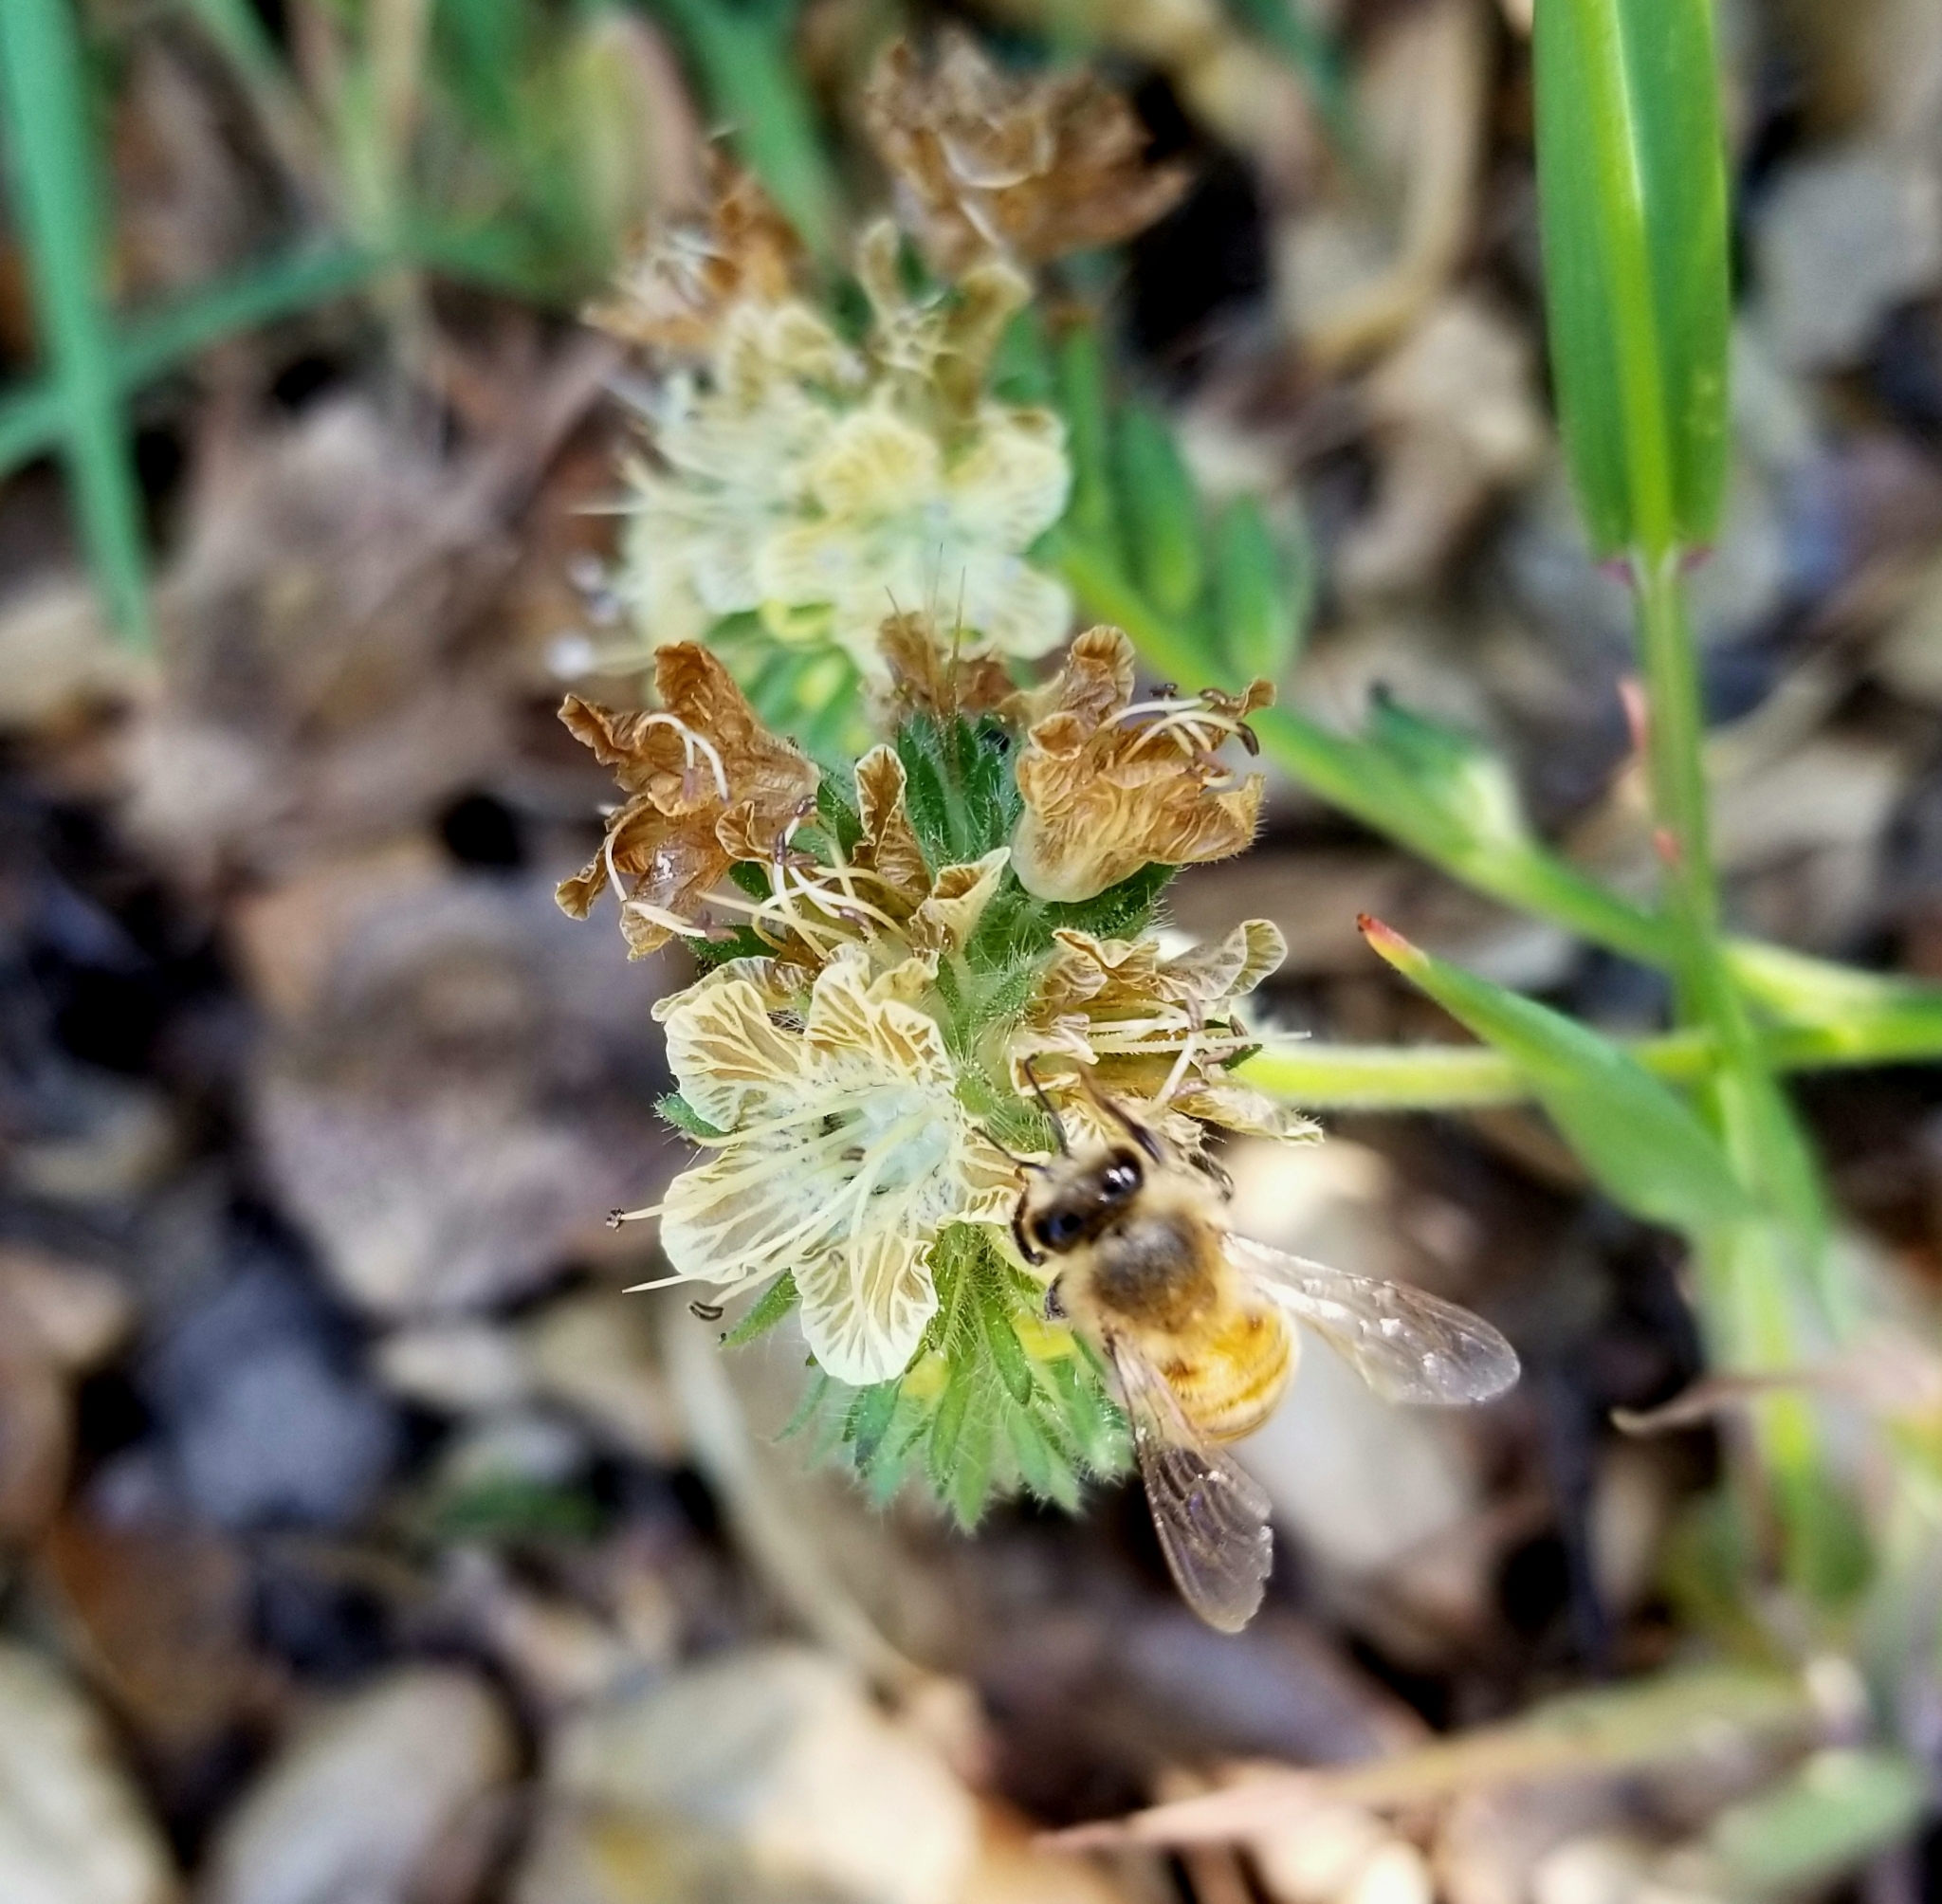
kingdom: Animalia
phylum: Arthropoda
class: Insecta
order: Hymenoptera
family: Apidae
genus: Apis
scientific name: Apis mellifera
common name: Honey bee
